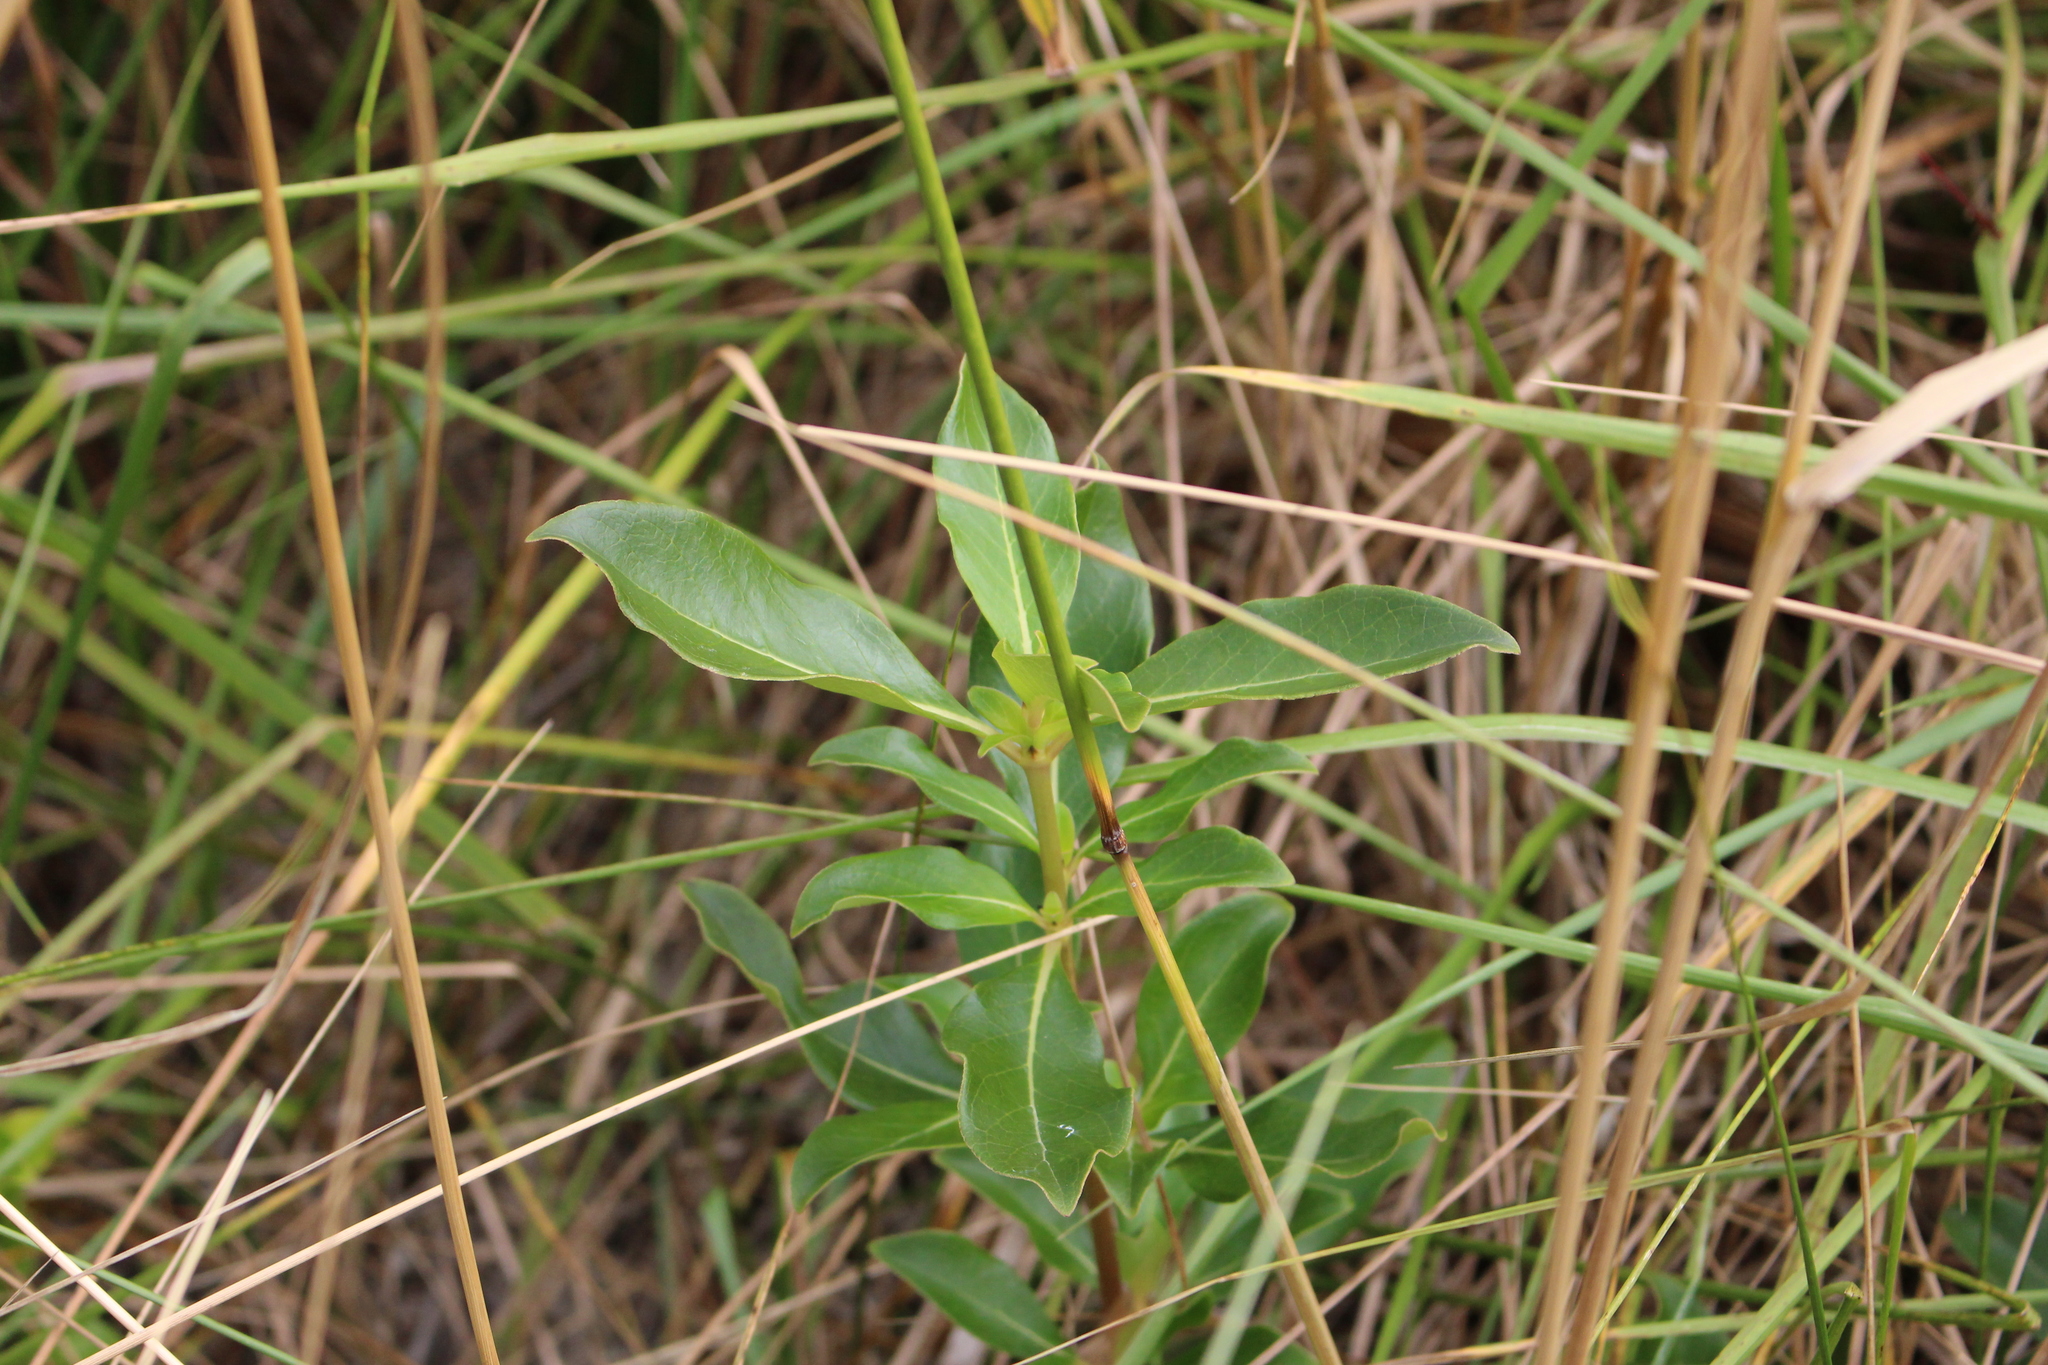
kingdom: Plantae
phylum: Tracheophyta
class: Magnoliopsida
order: Gentianales
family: Rubiaceae
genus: Coprosma
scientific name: Coprosma robusta
